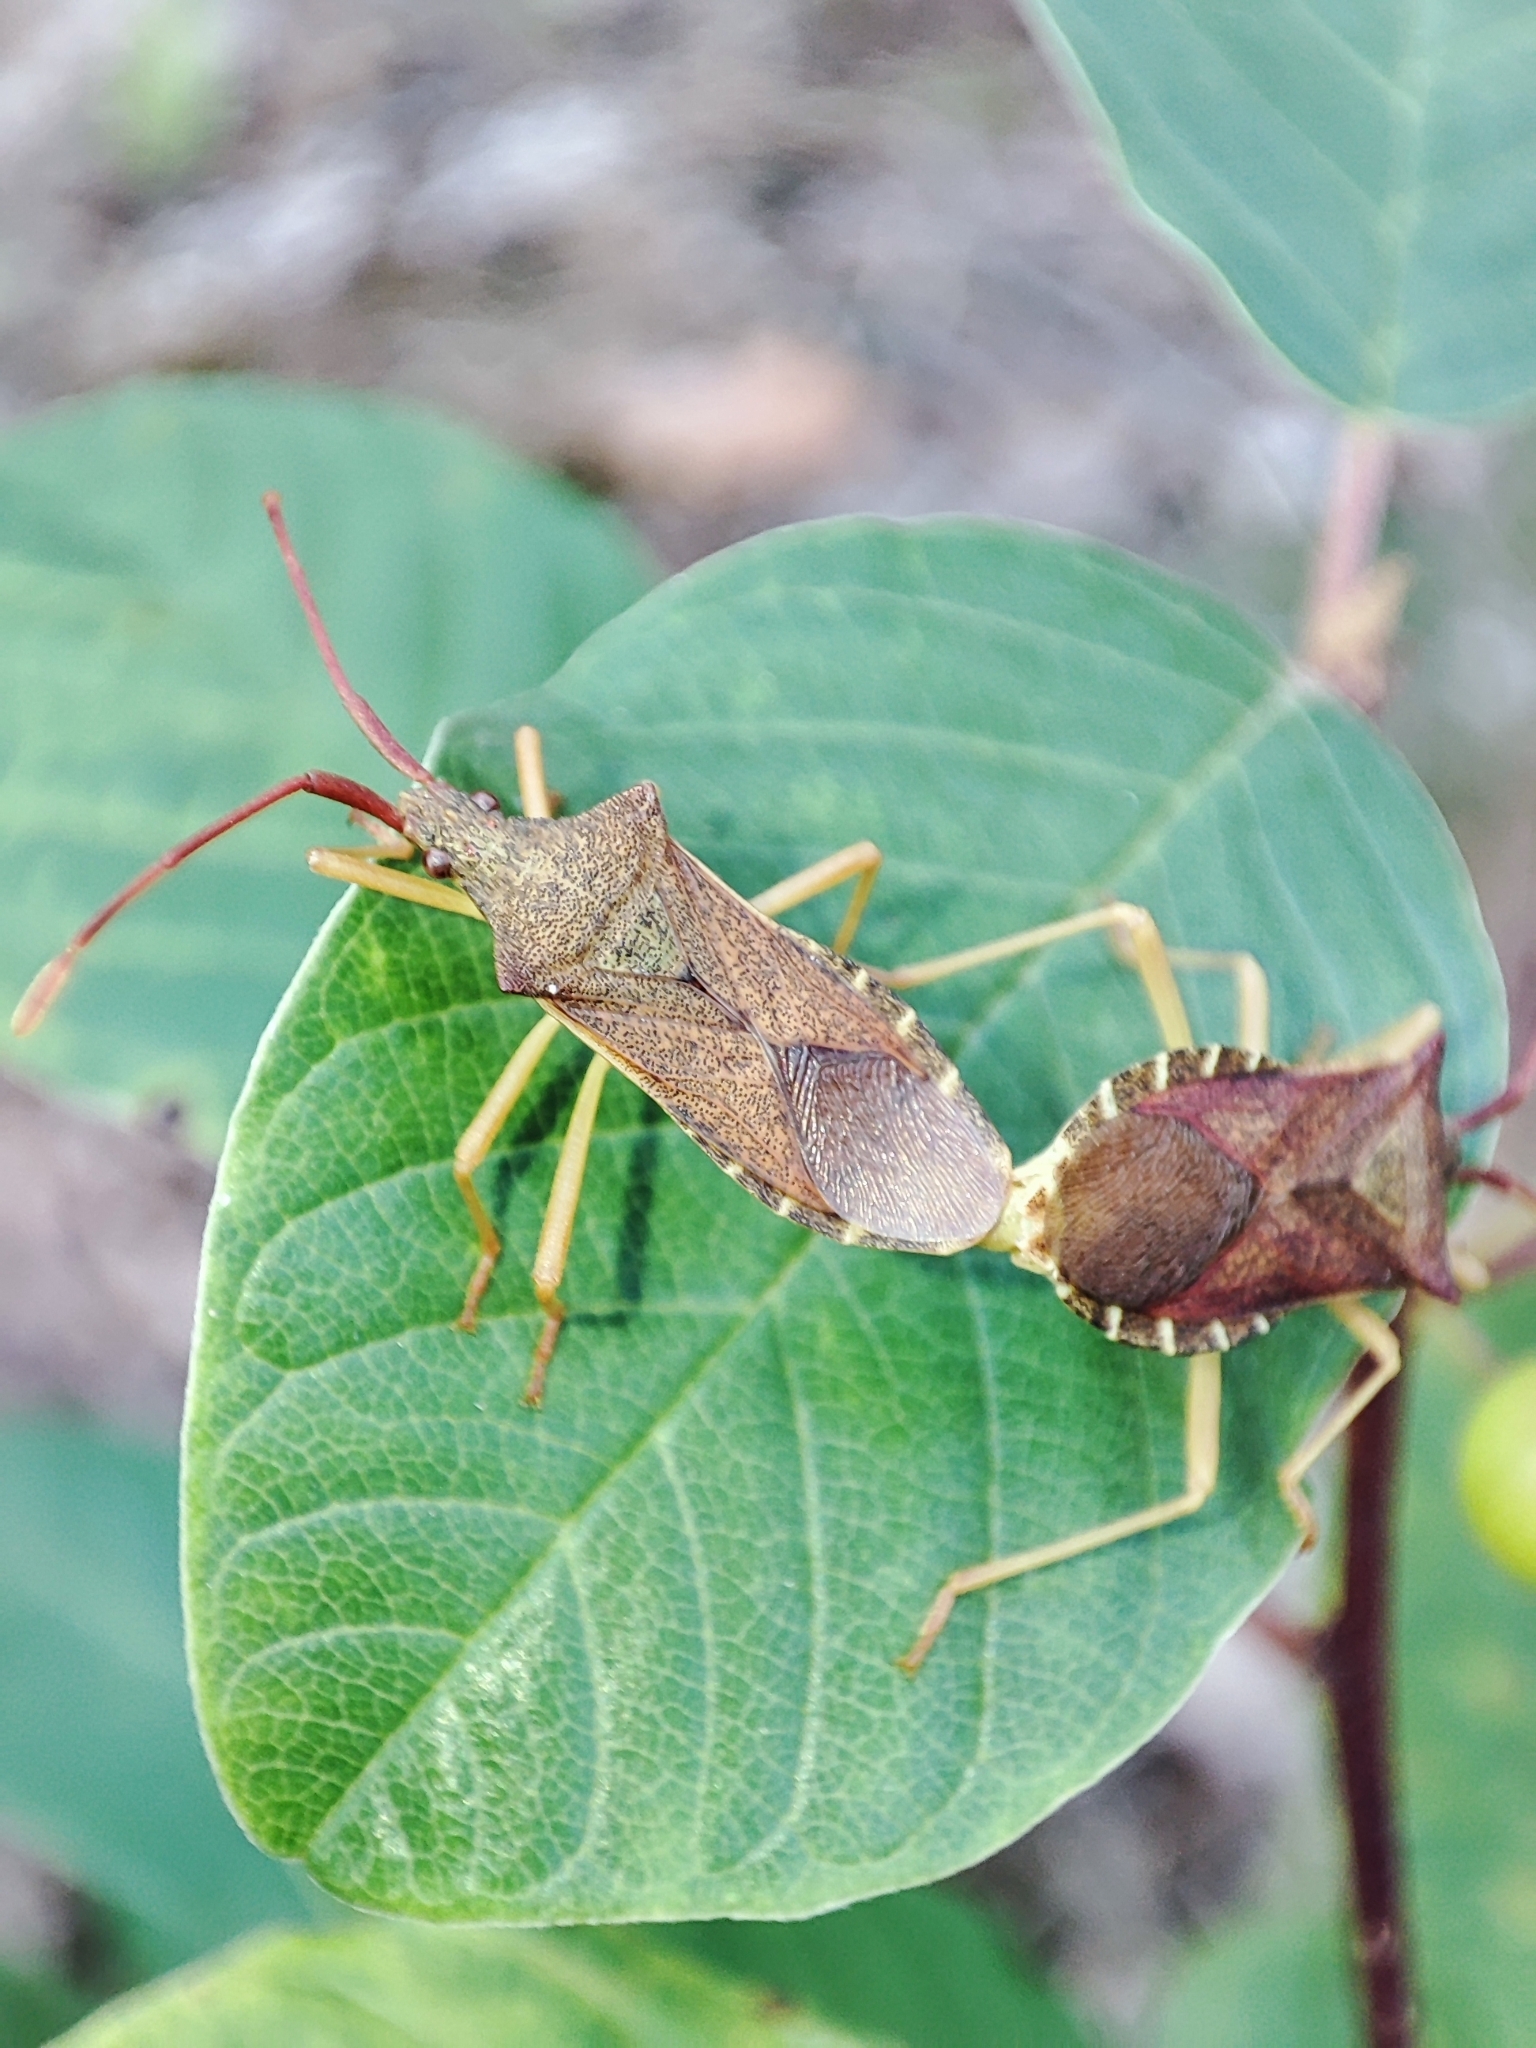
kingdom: Animalia
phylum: Arthropoda
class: Insecta
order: Hemiptera
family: Coreidae
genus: Gonocerus
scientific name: Gonocerus acuteangulatus
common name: Box bug
